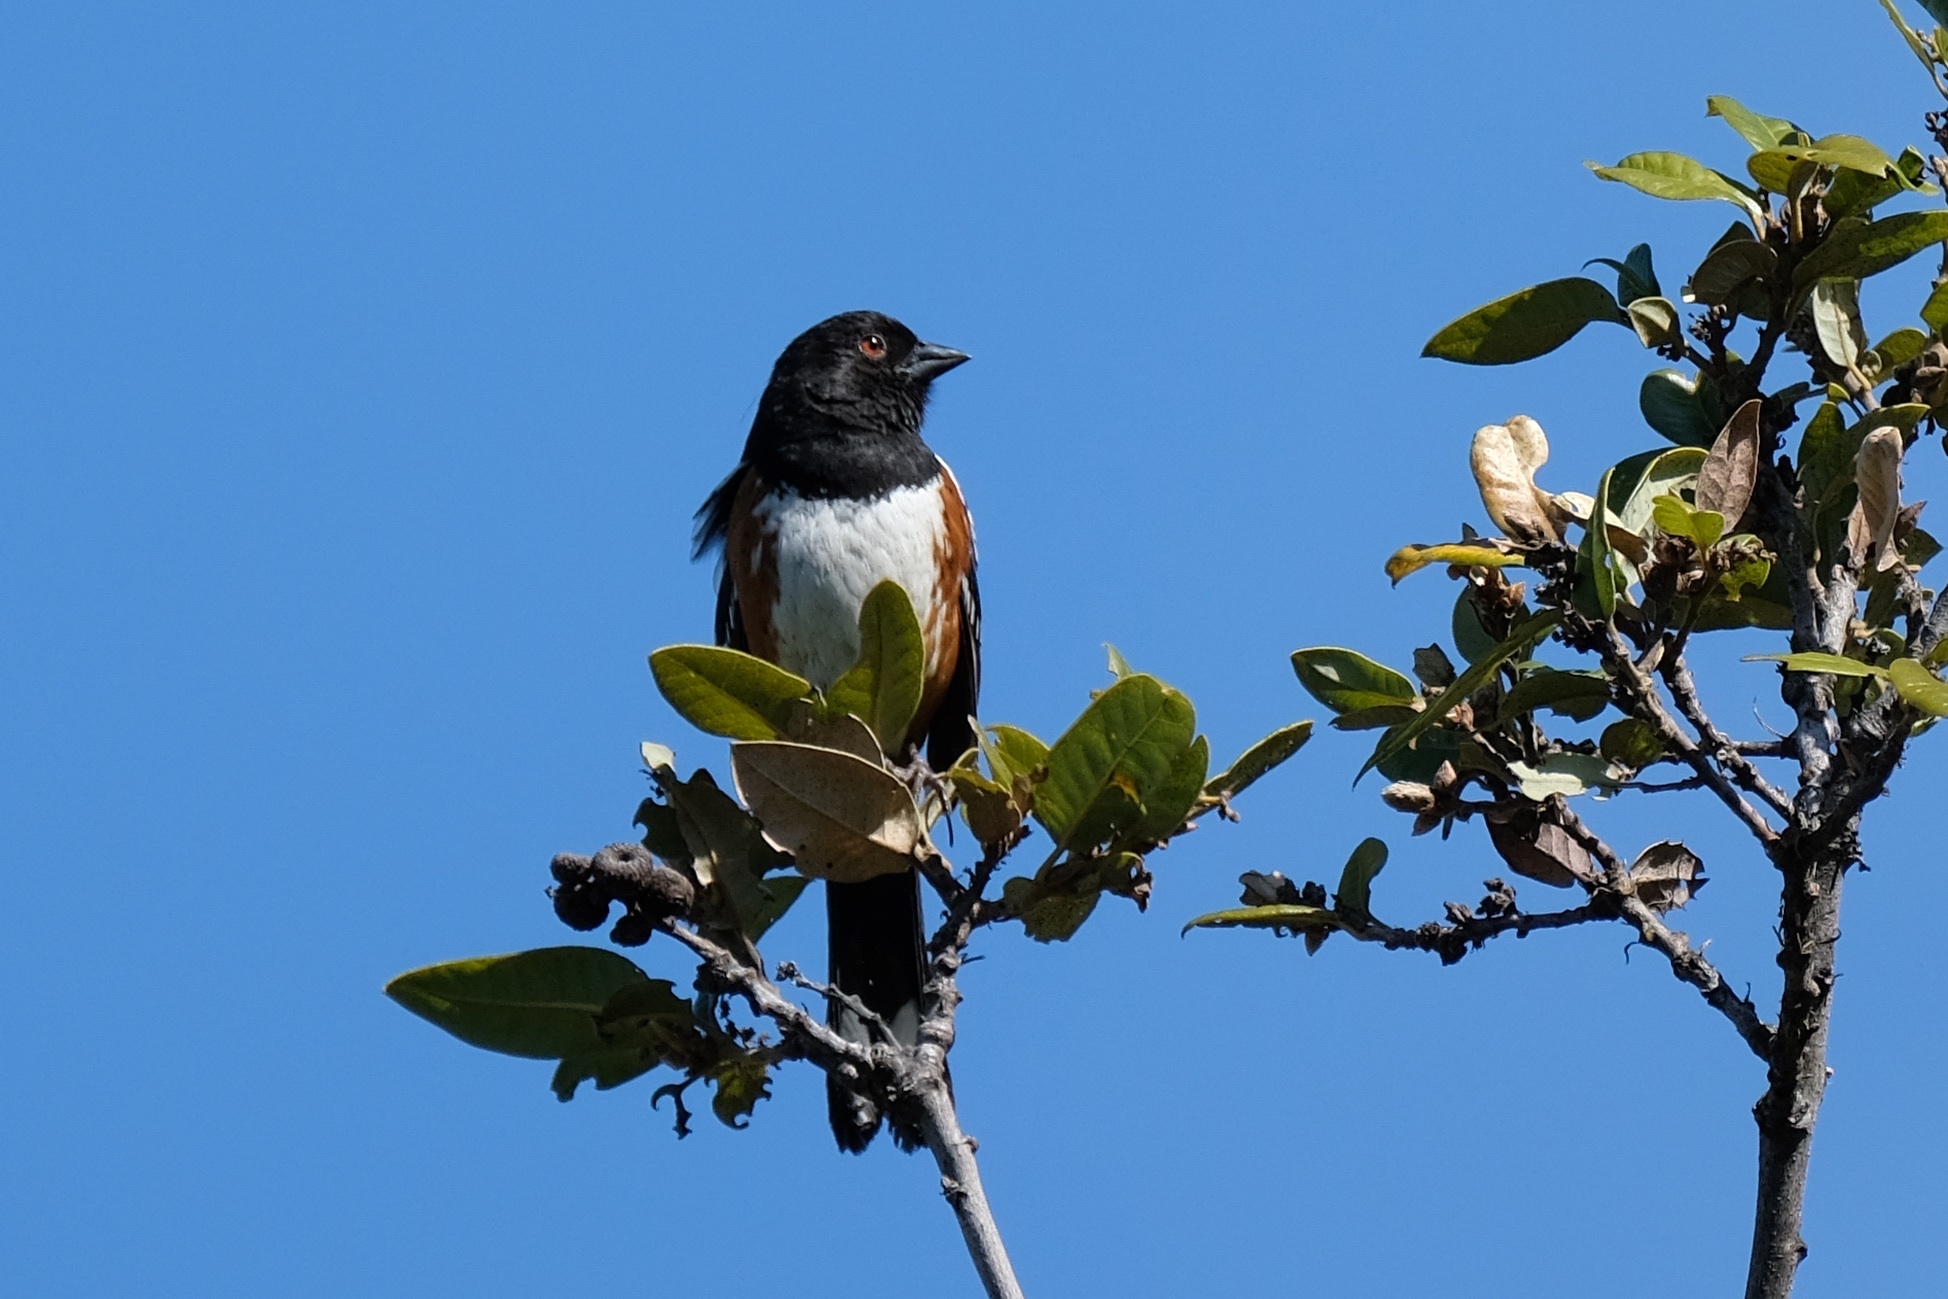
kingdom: Animalia
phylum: Chordata
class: Aves
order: Passeriformes
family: Passerellidae
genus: Pipilo
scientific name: Pipilo maculatus
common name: Spotted towhee
